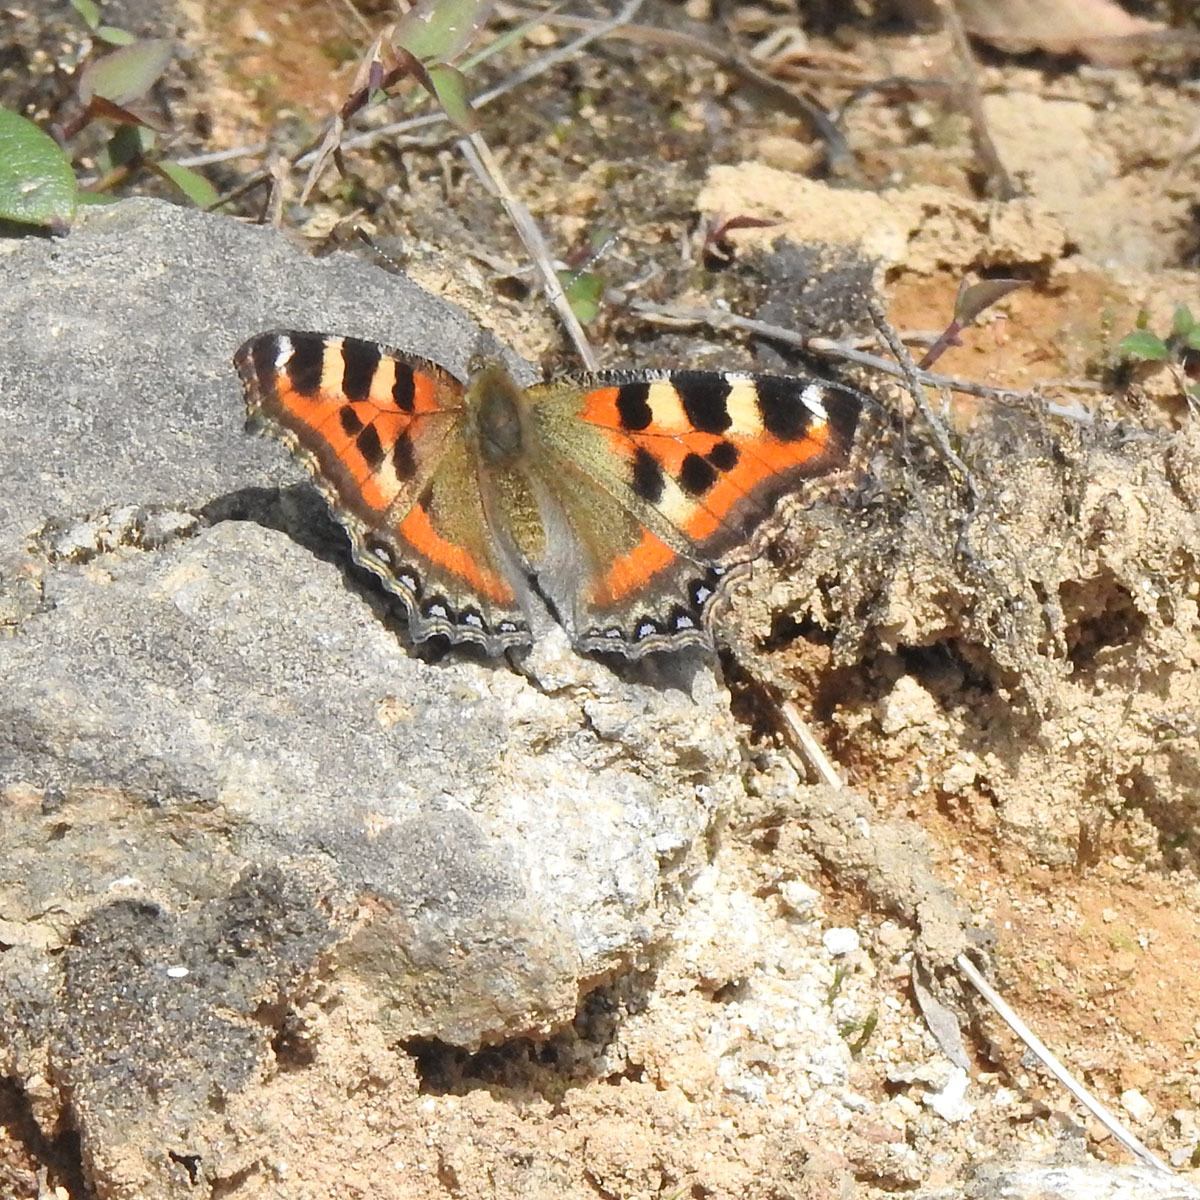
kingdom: Animalia
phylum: Arthropoda
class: Insecta
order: Lepidoptera
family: Nymphalidae
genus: Aglais
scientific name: Aglais caschmirensis
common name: Indian tortoiseshell
